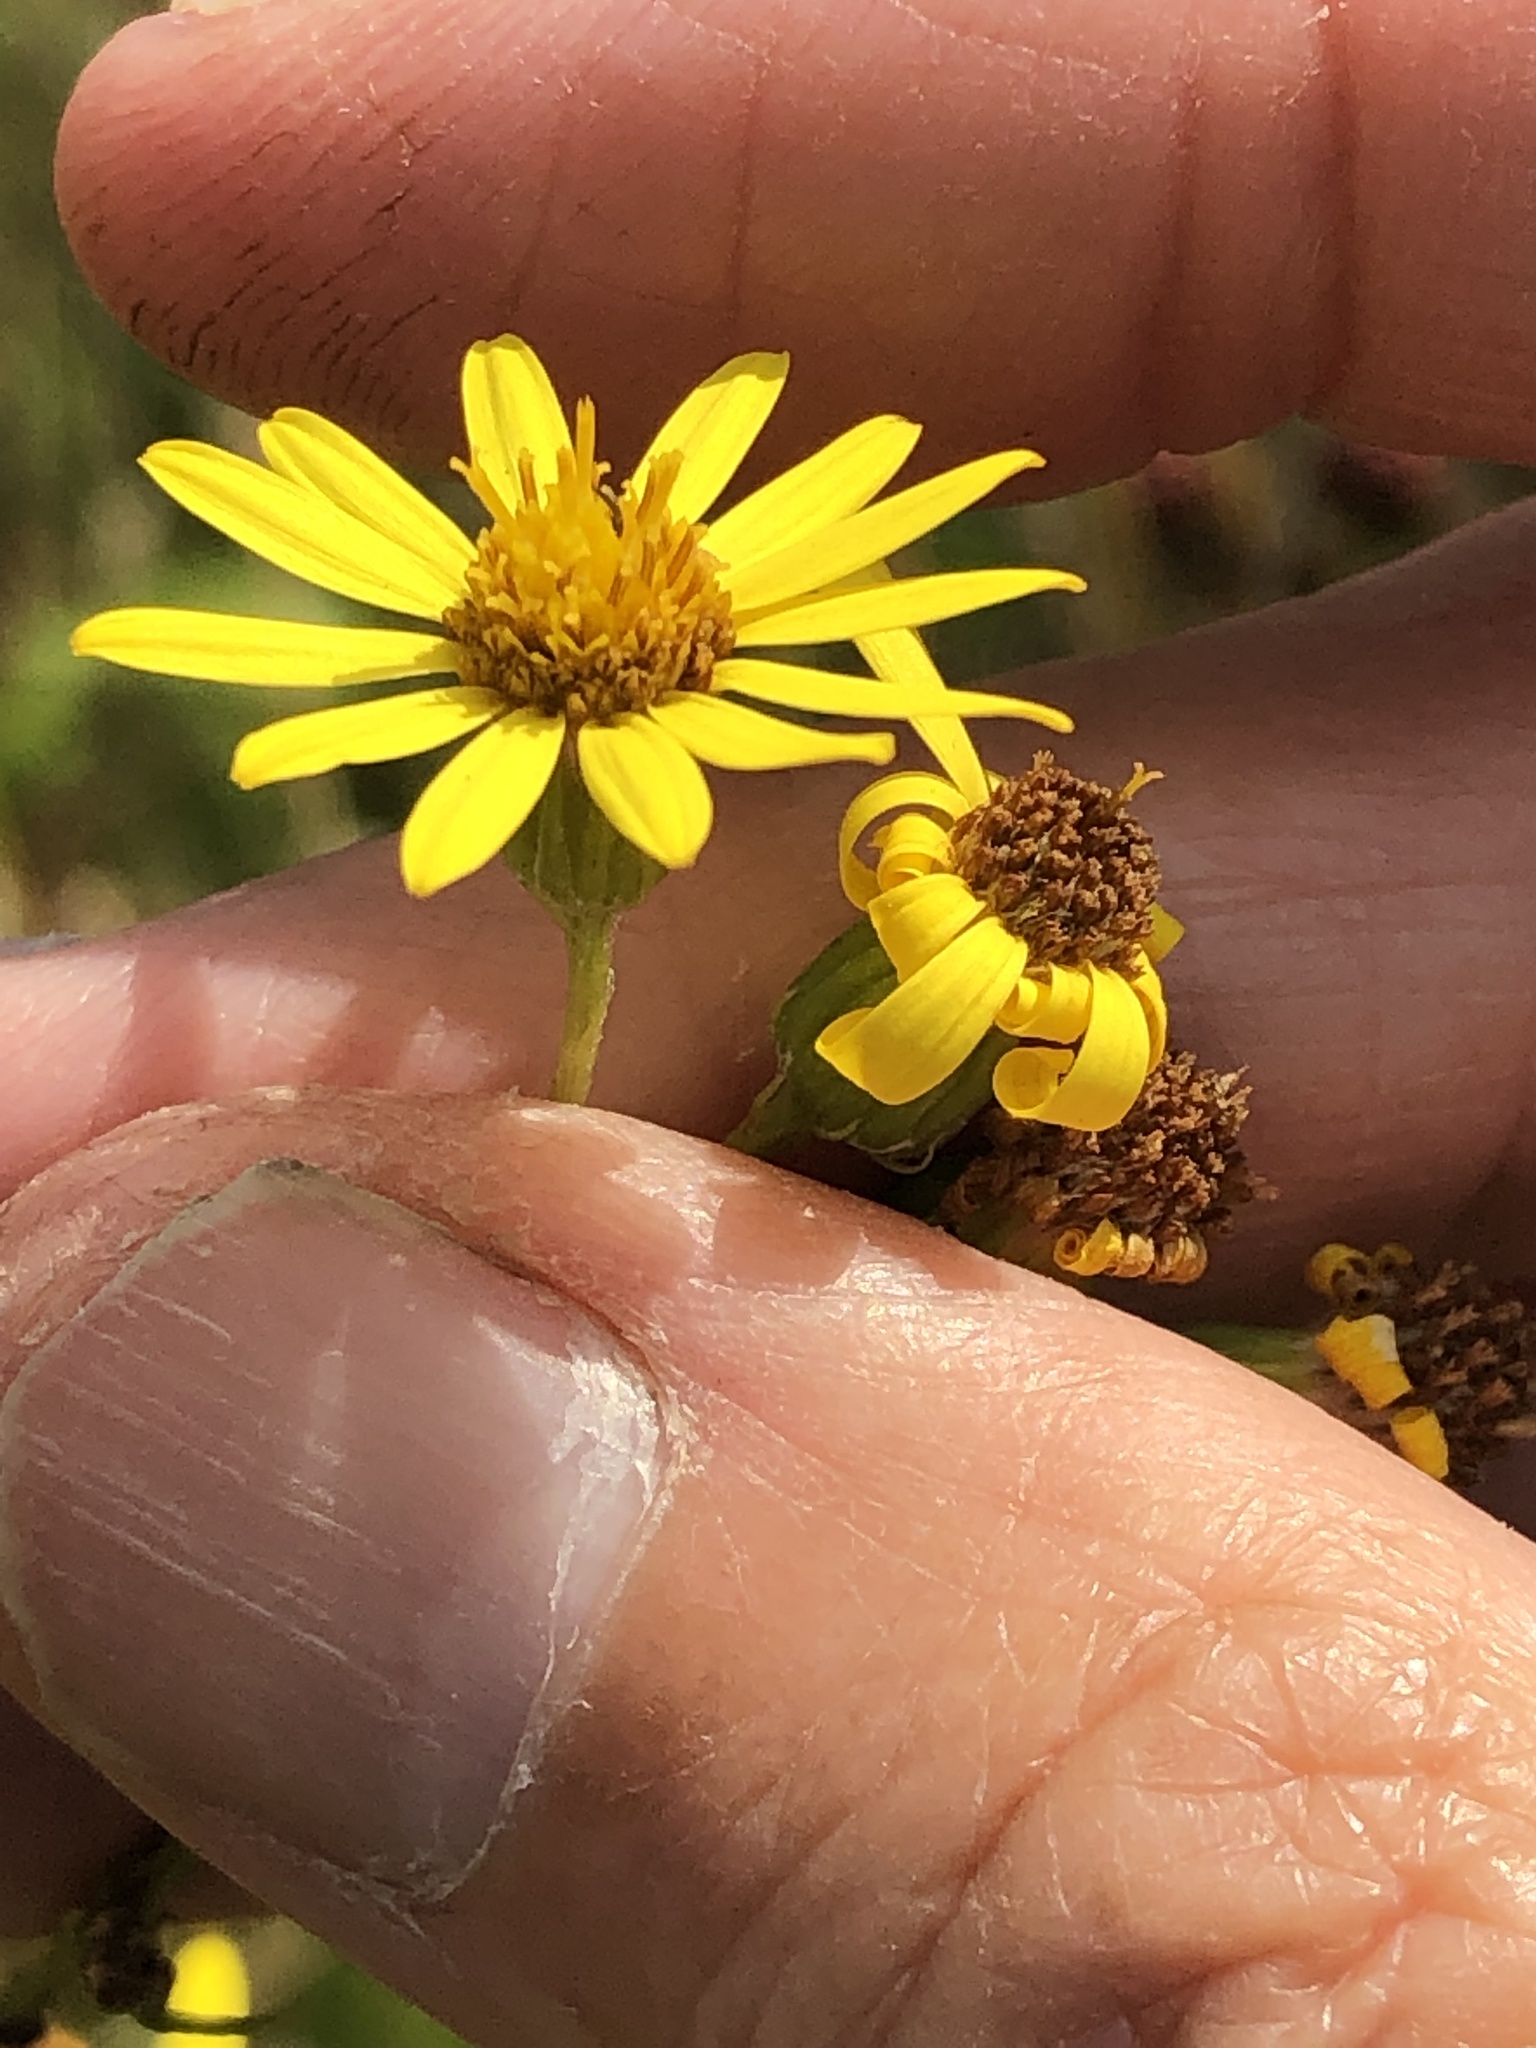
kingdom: Plantae
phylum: Tracheophyta
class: Magnoliopsida
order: Asterales
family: Asteraceae
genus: Jacobaea
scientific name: Jacobaea erucifolia
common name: Hoary ragwort
